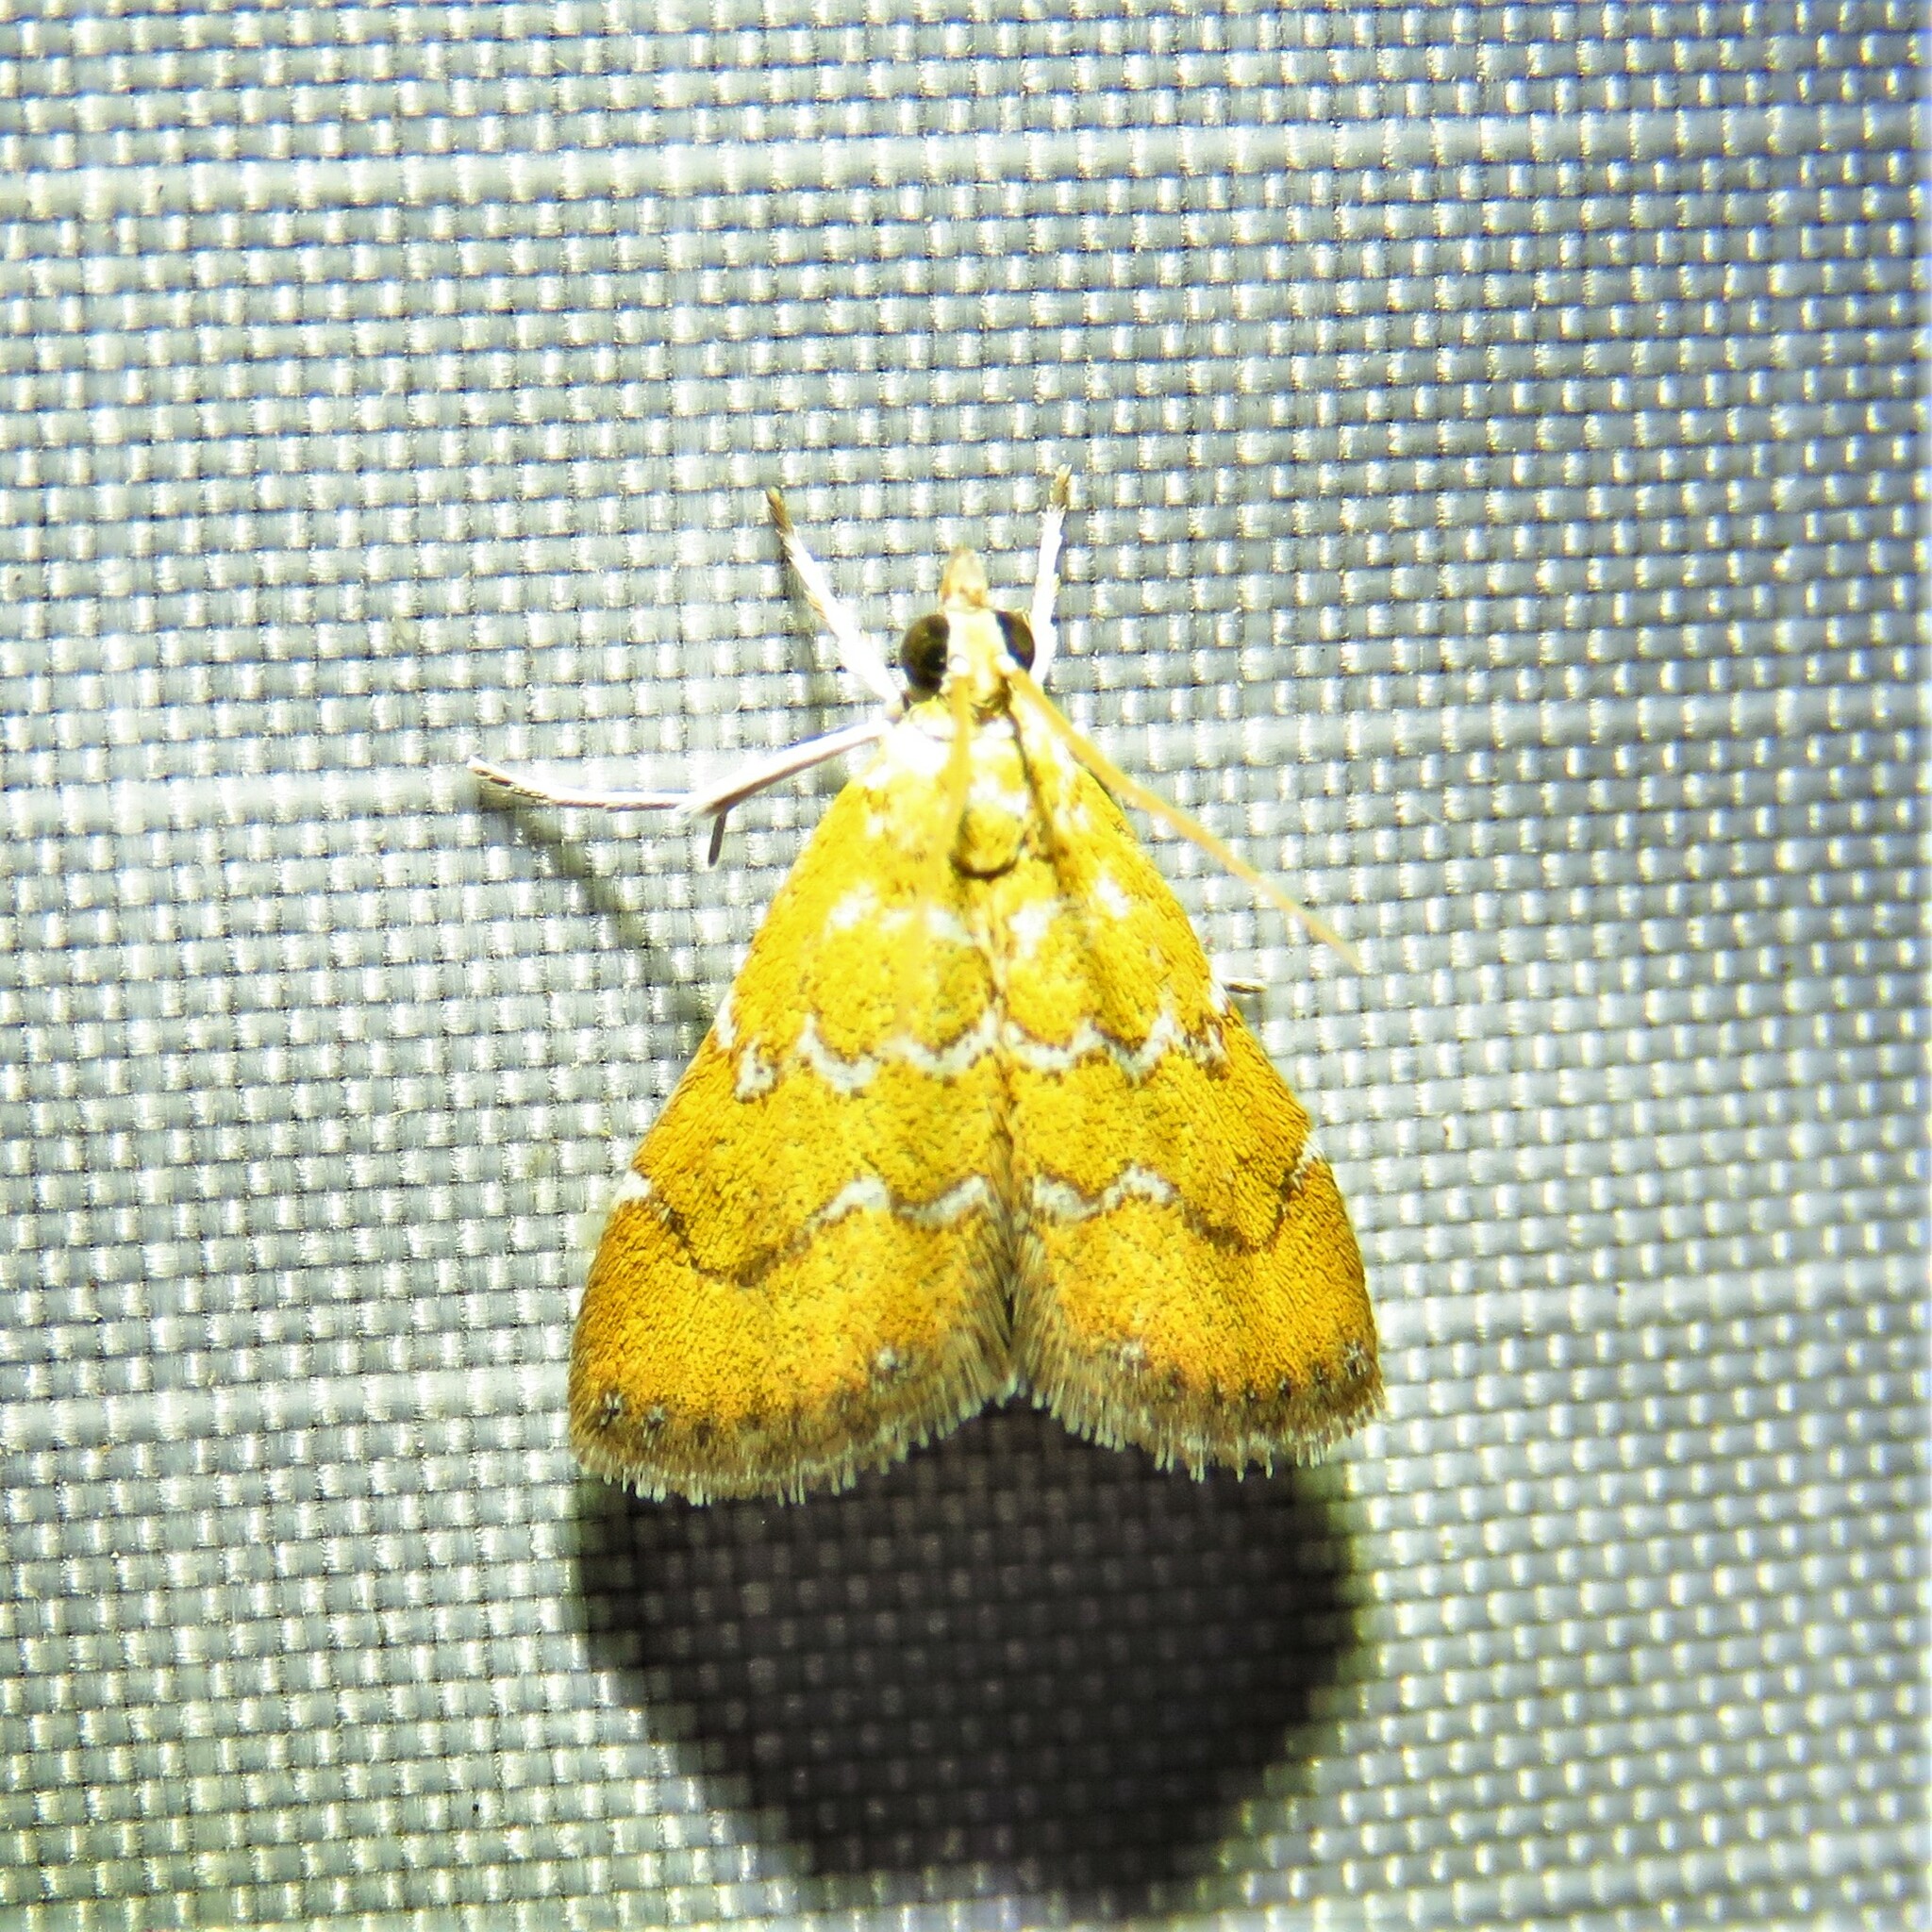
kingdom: Animalia
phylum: Arthropoda
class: Insecta
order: Lepidoptera
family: Crambidae
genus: Xanthophysa
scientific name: Xanthophysa psychicalis
